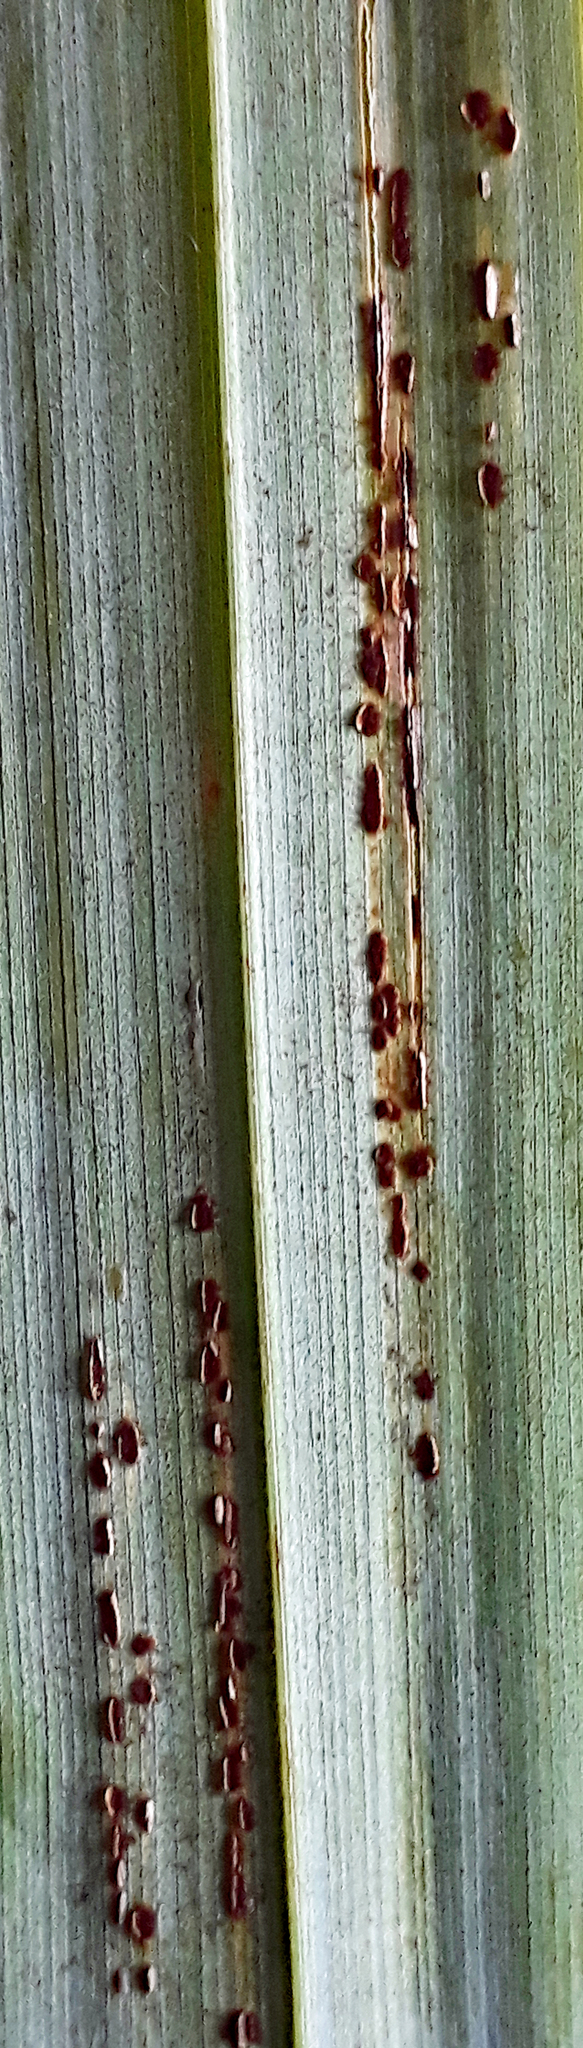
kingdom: Fungi
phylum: Basidiomycota
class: Pucciniomycetes
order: Pucciniales
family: Pucciniaceae
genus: Puccinia
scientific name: Puccinia chathamica
